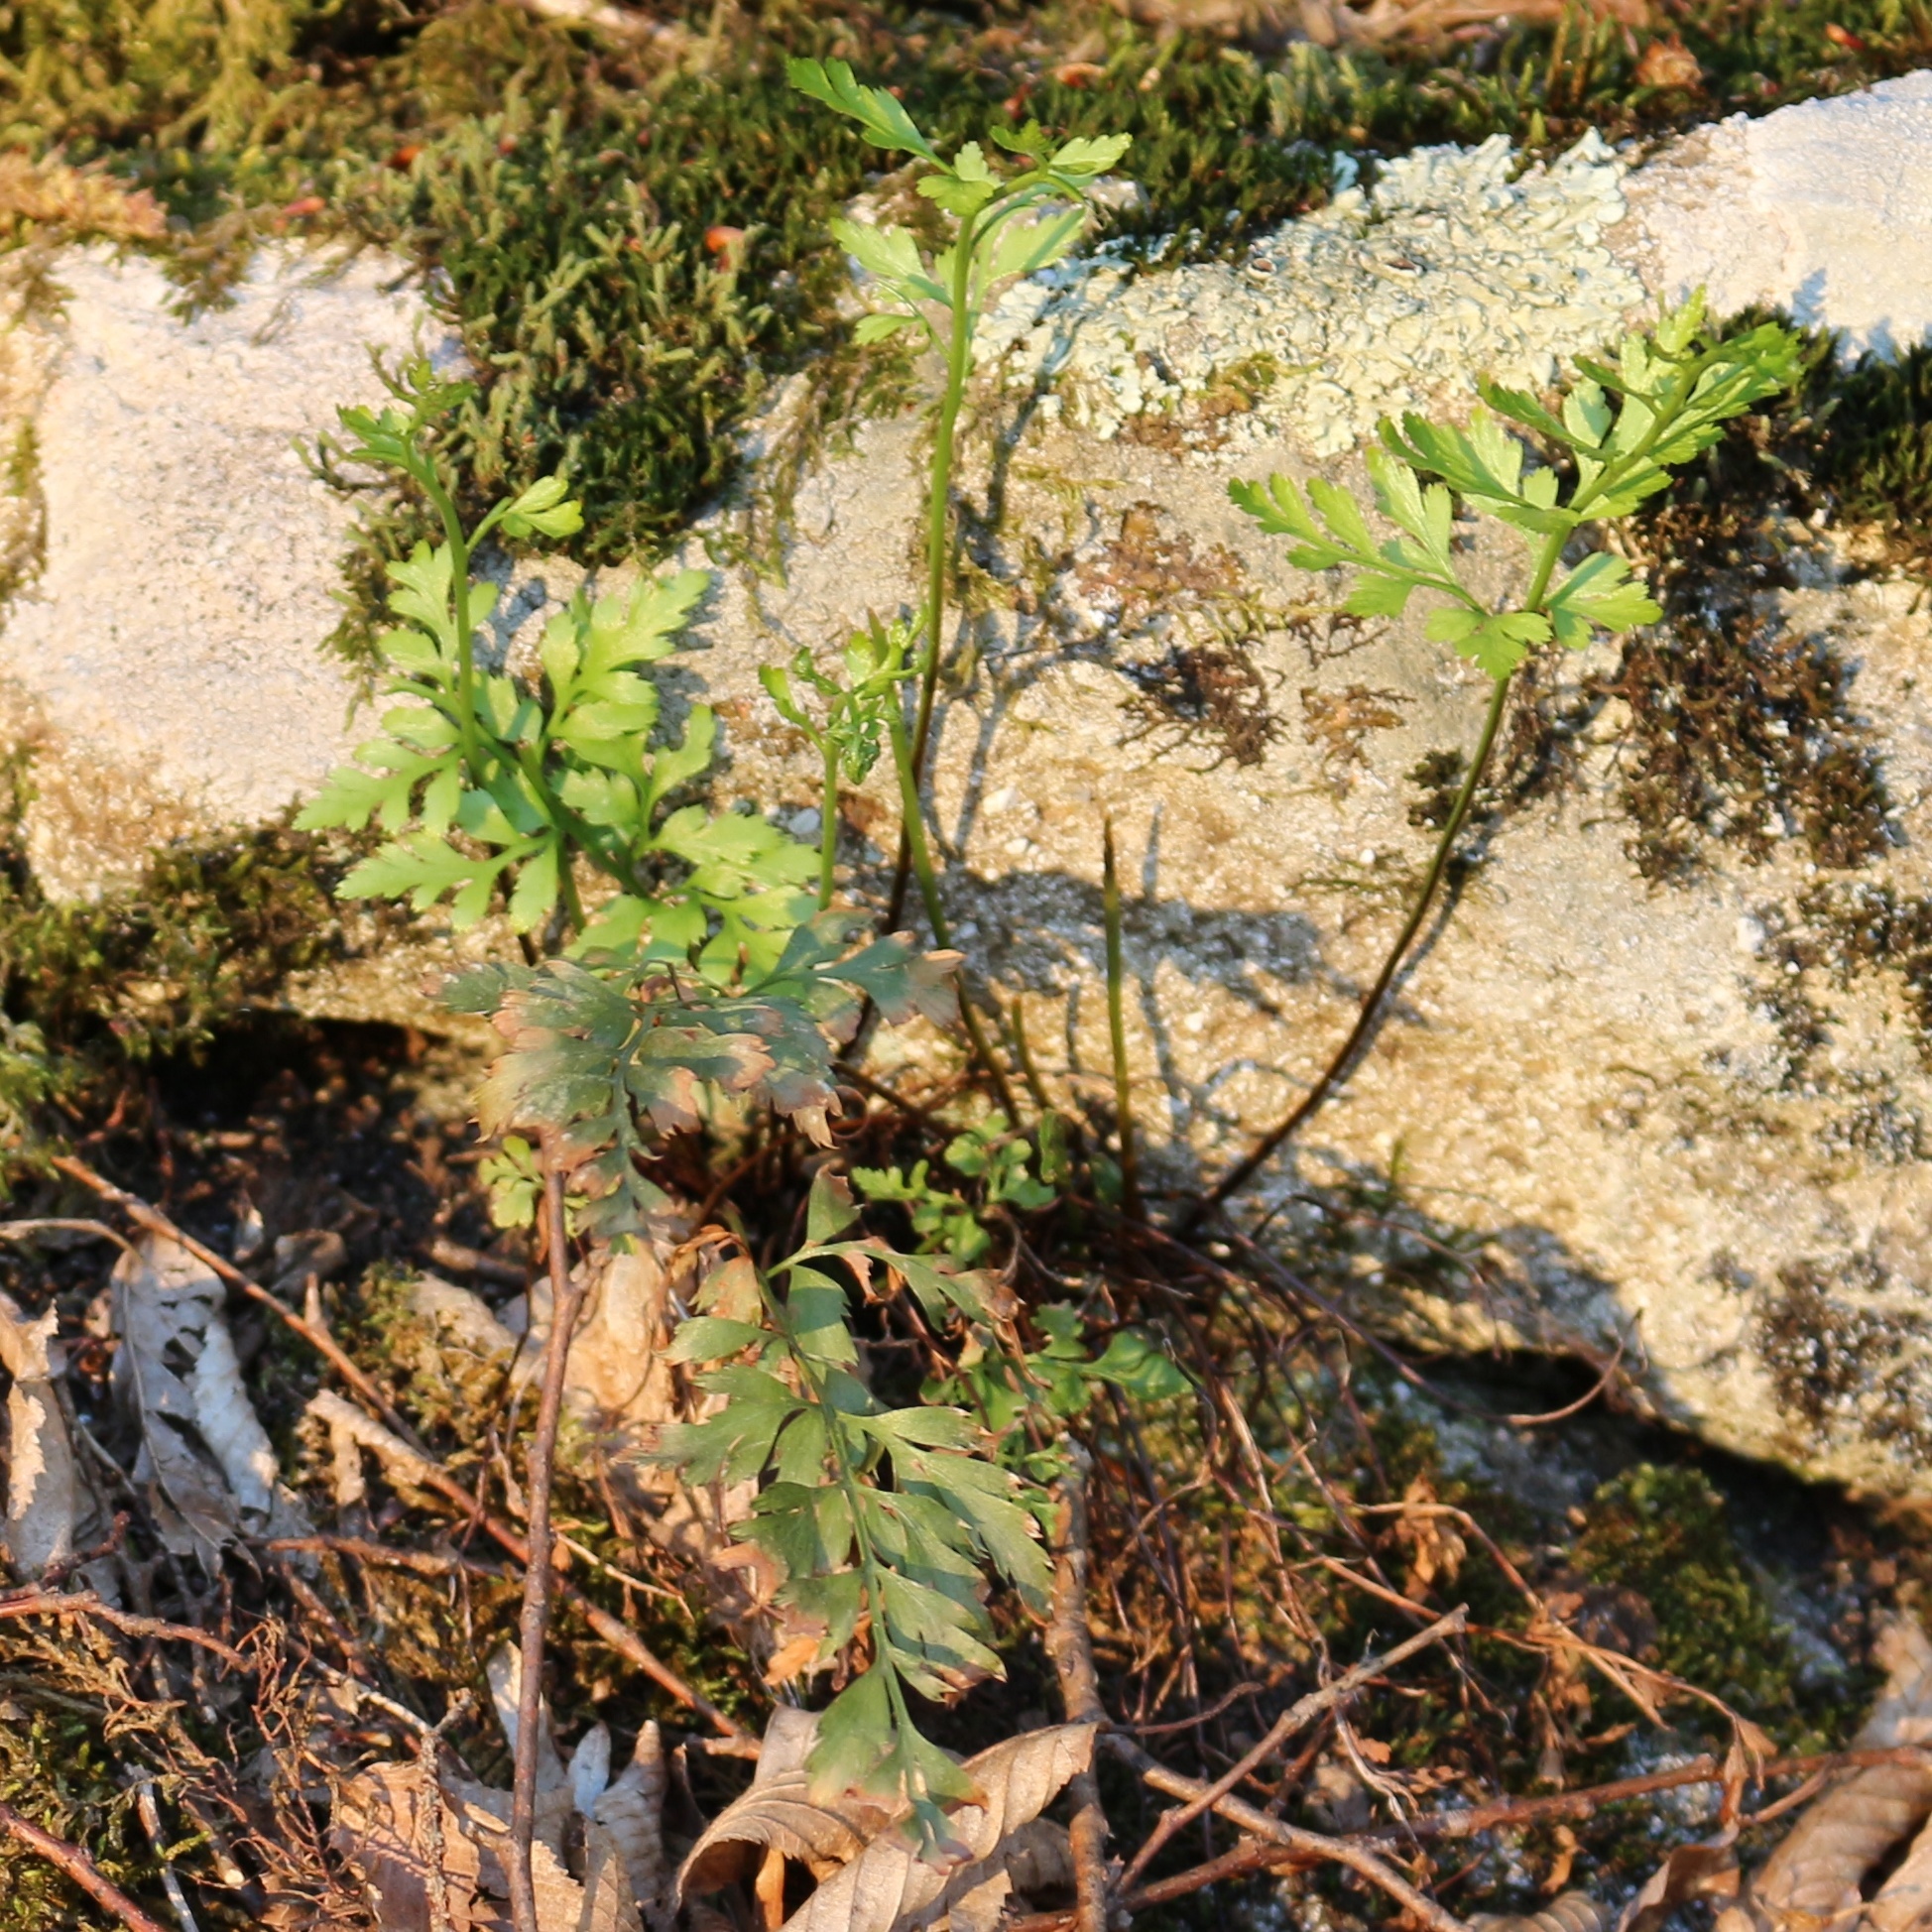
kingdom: Plantae
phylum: Tracheophyta
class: Polypodiopsida
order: Polypodiales
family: Aspleniaceae
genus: Asplenium
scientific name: Asplenium adiantum-nigrum
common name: Black spleenwort
